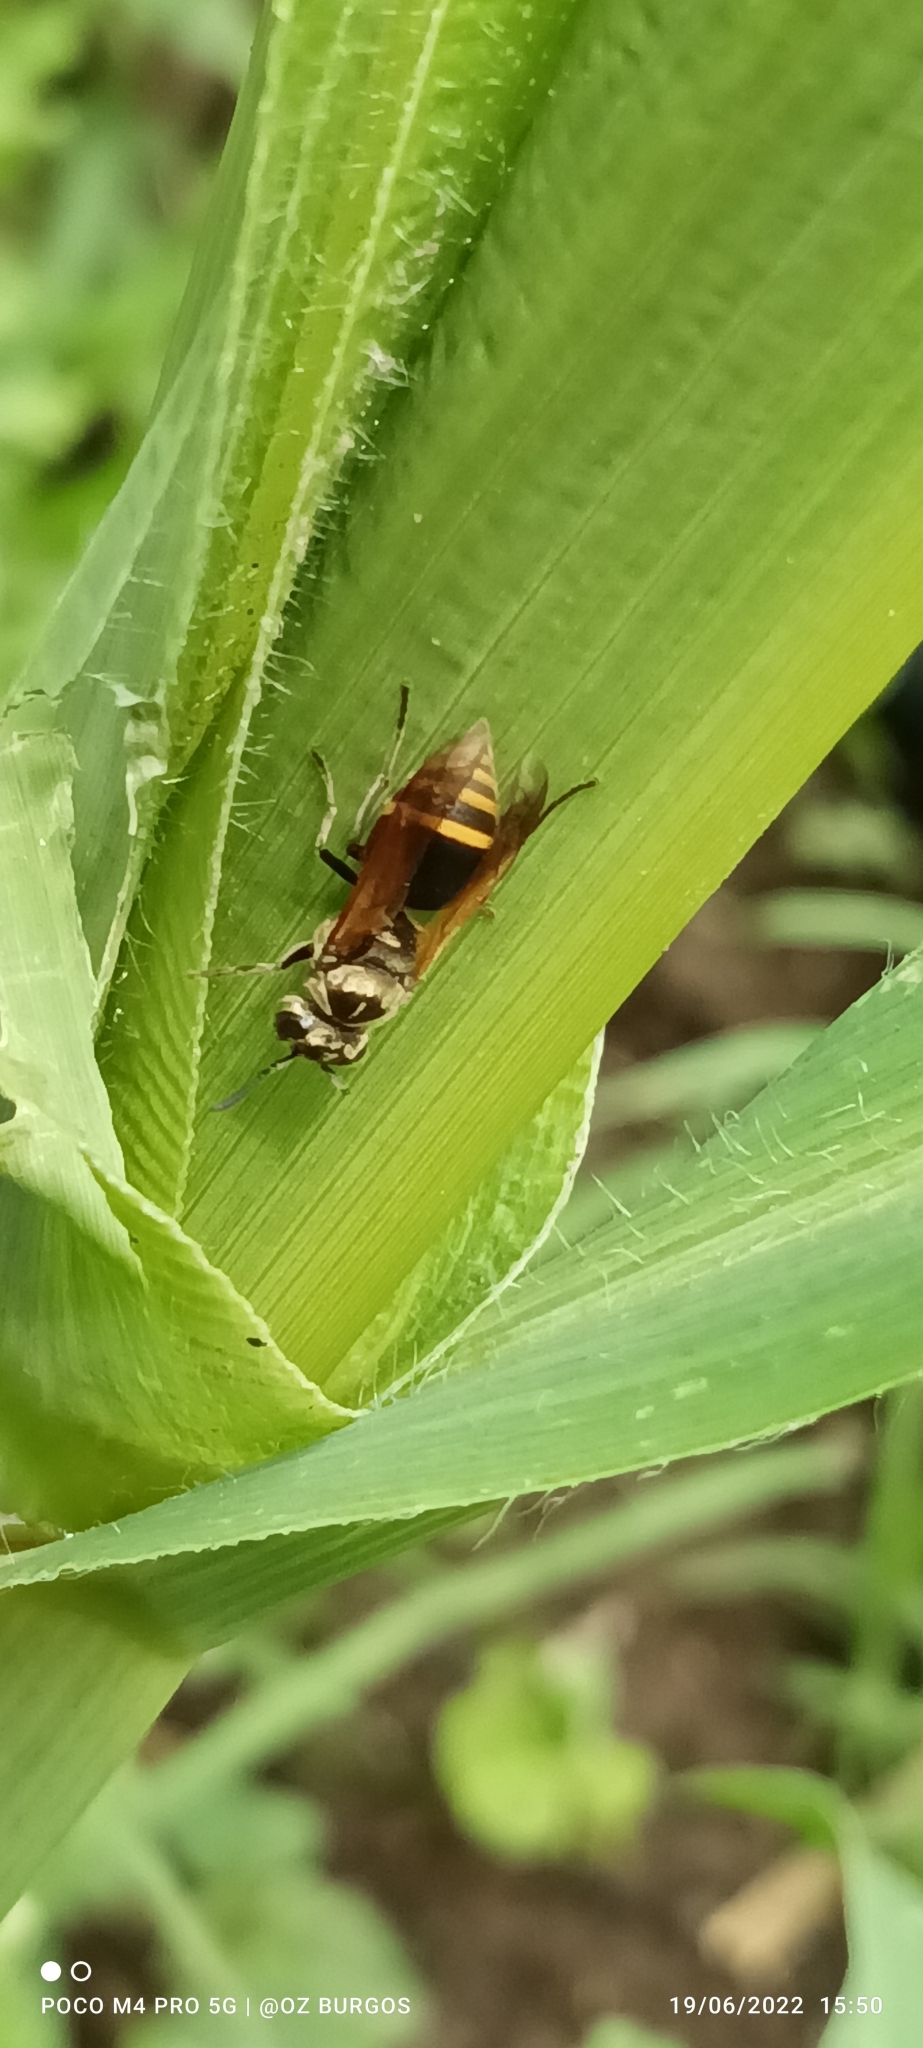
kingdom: Animalia
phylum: Arthropoda
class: Insecta
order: Hymenoptera
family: Vespidae
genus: Brachygastra
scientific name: Brachygastra mellifica
